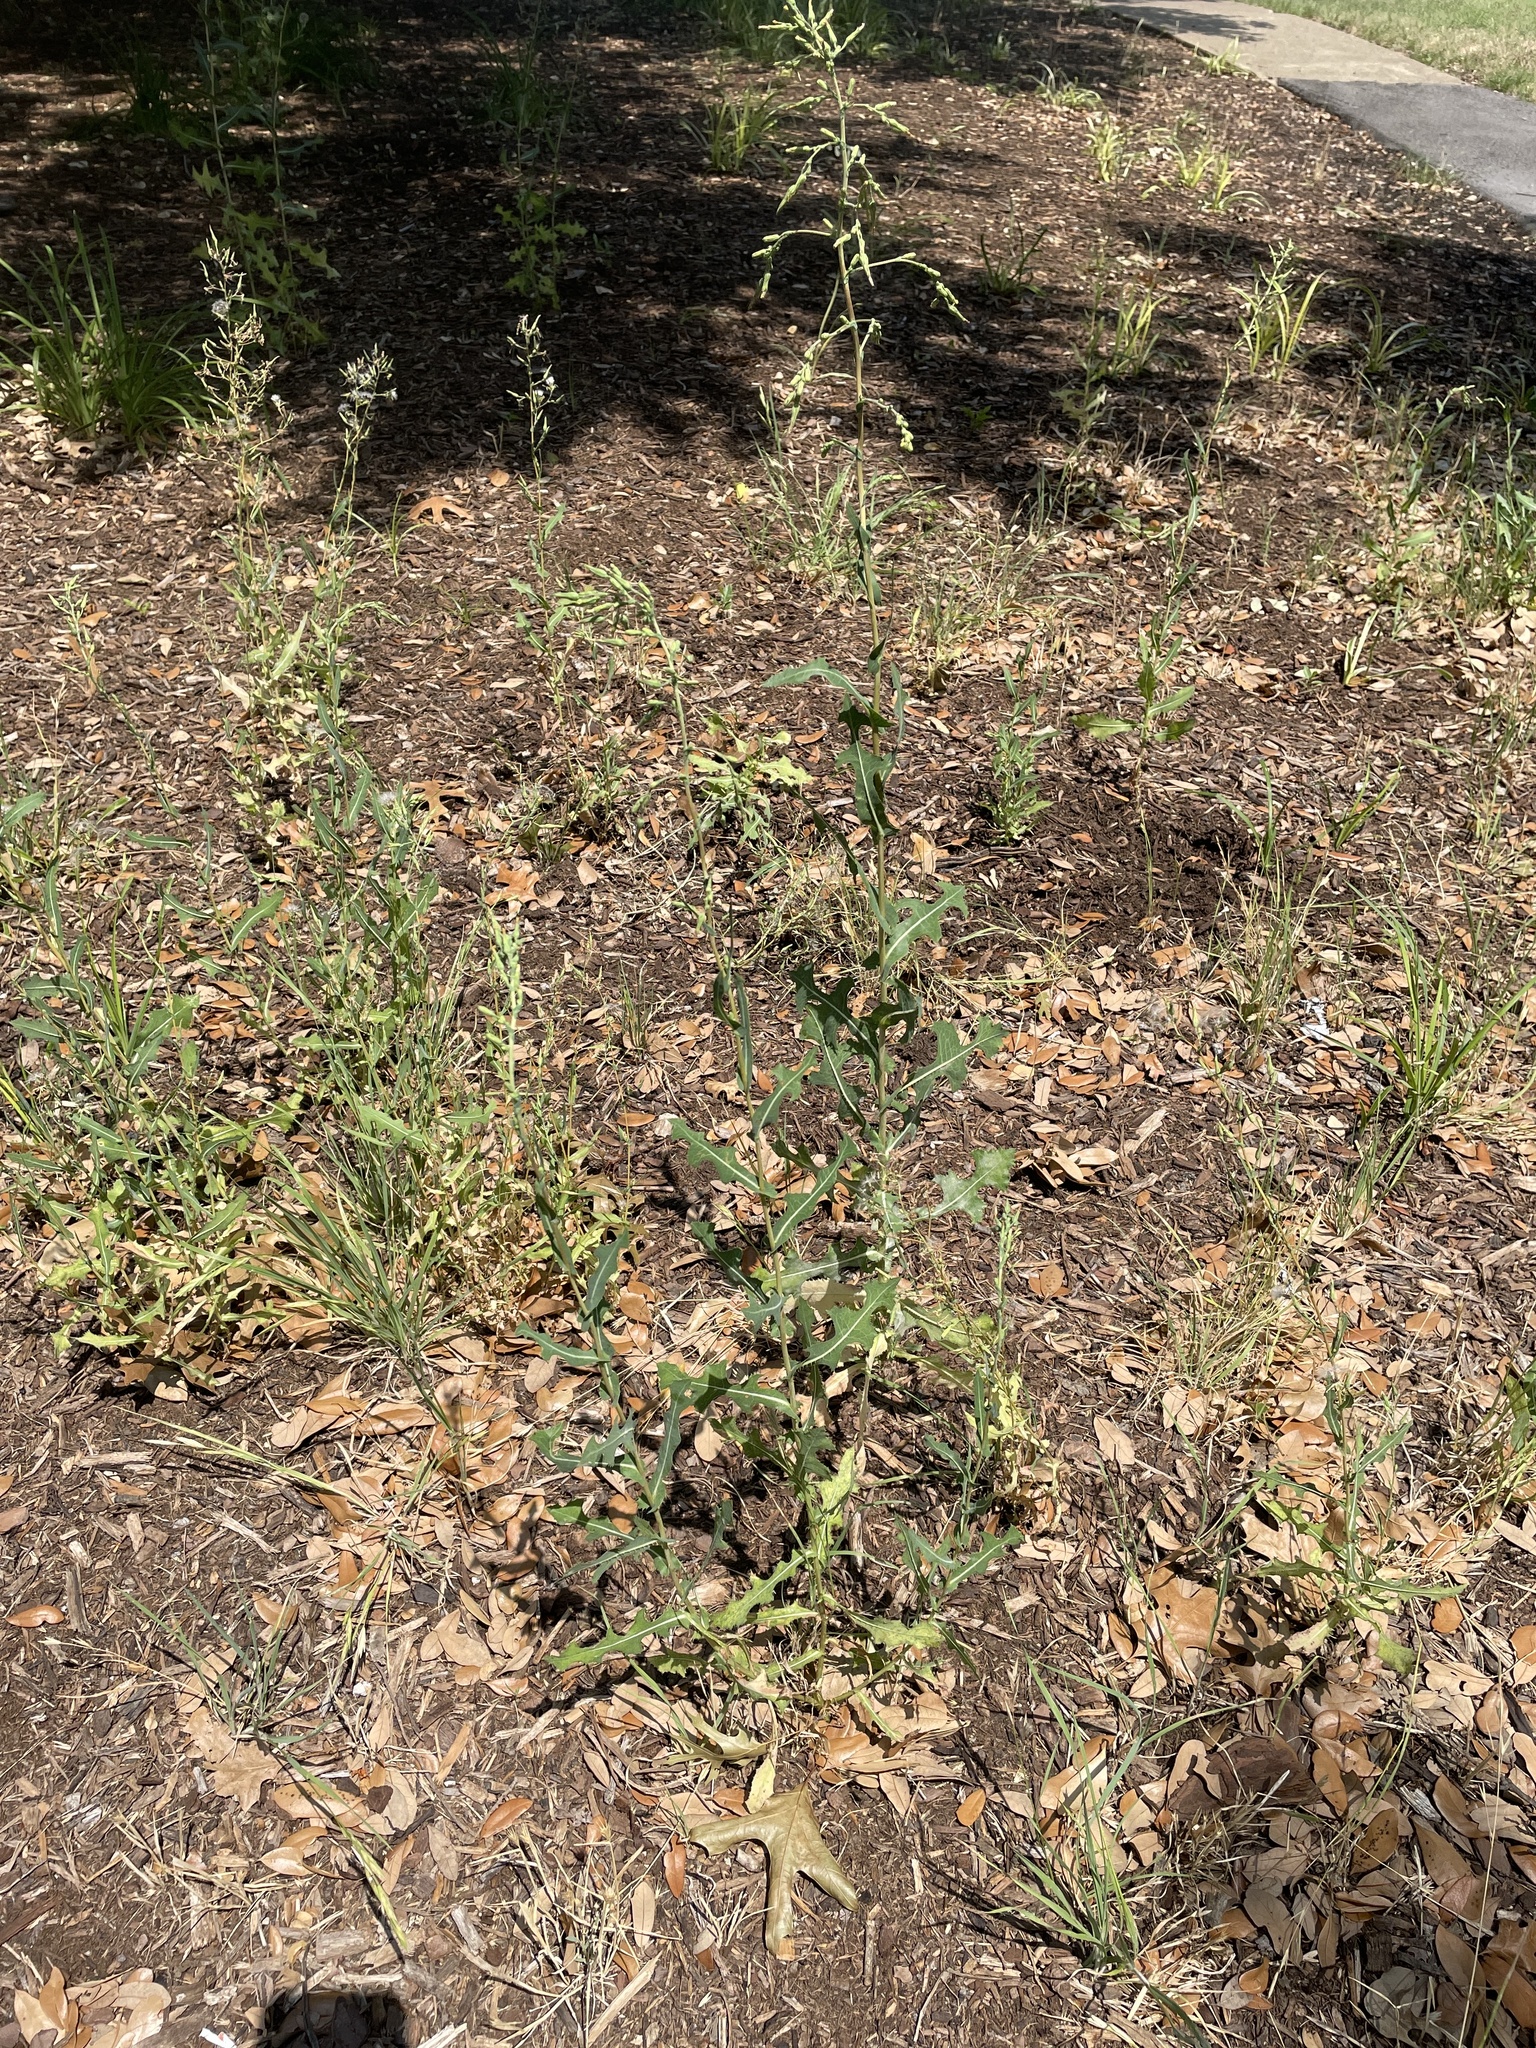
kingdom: Plantae
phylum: Tracheophyta
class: Magnoliopsida
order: Asterales
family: Asteraceae
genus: Lactuca
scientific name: Lactuca serriola
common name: Prickly lettuce
